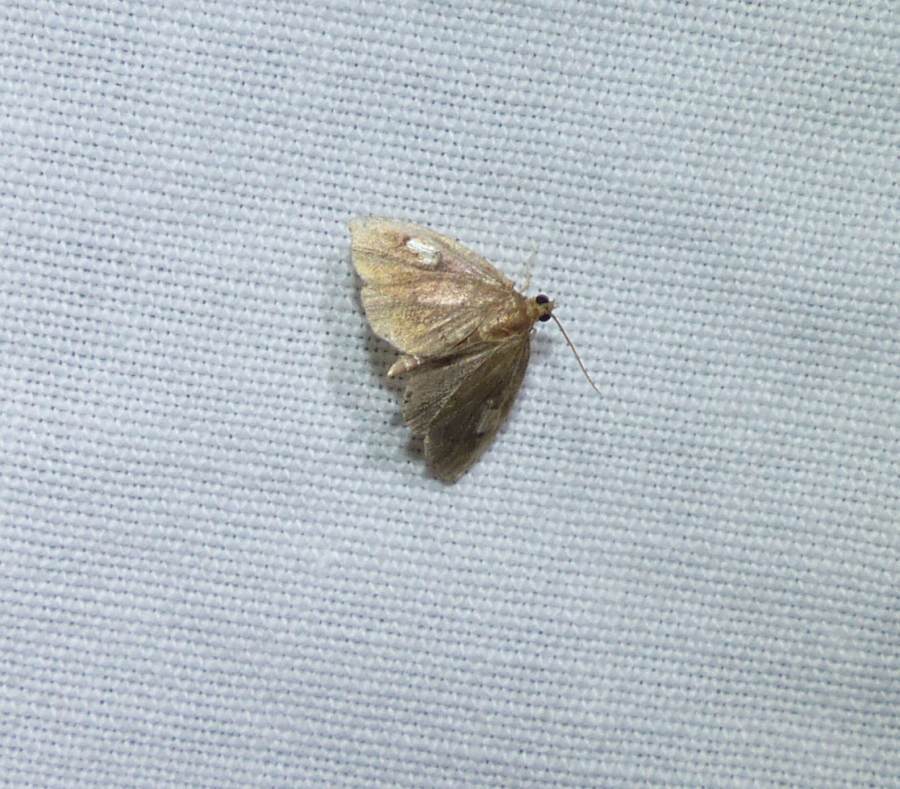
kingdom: Animalia
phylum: Arthropoda
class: Insecta
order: Lepidoptera
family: Crambidae
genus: Perispasta
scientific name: Perispasta caeculalis
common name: Titian peale's moth
